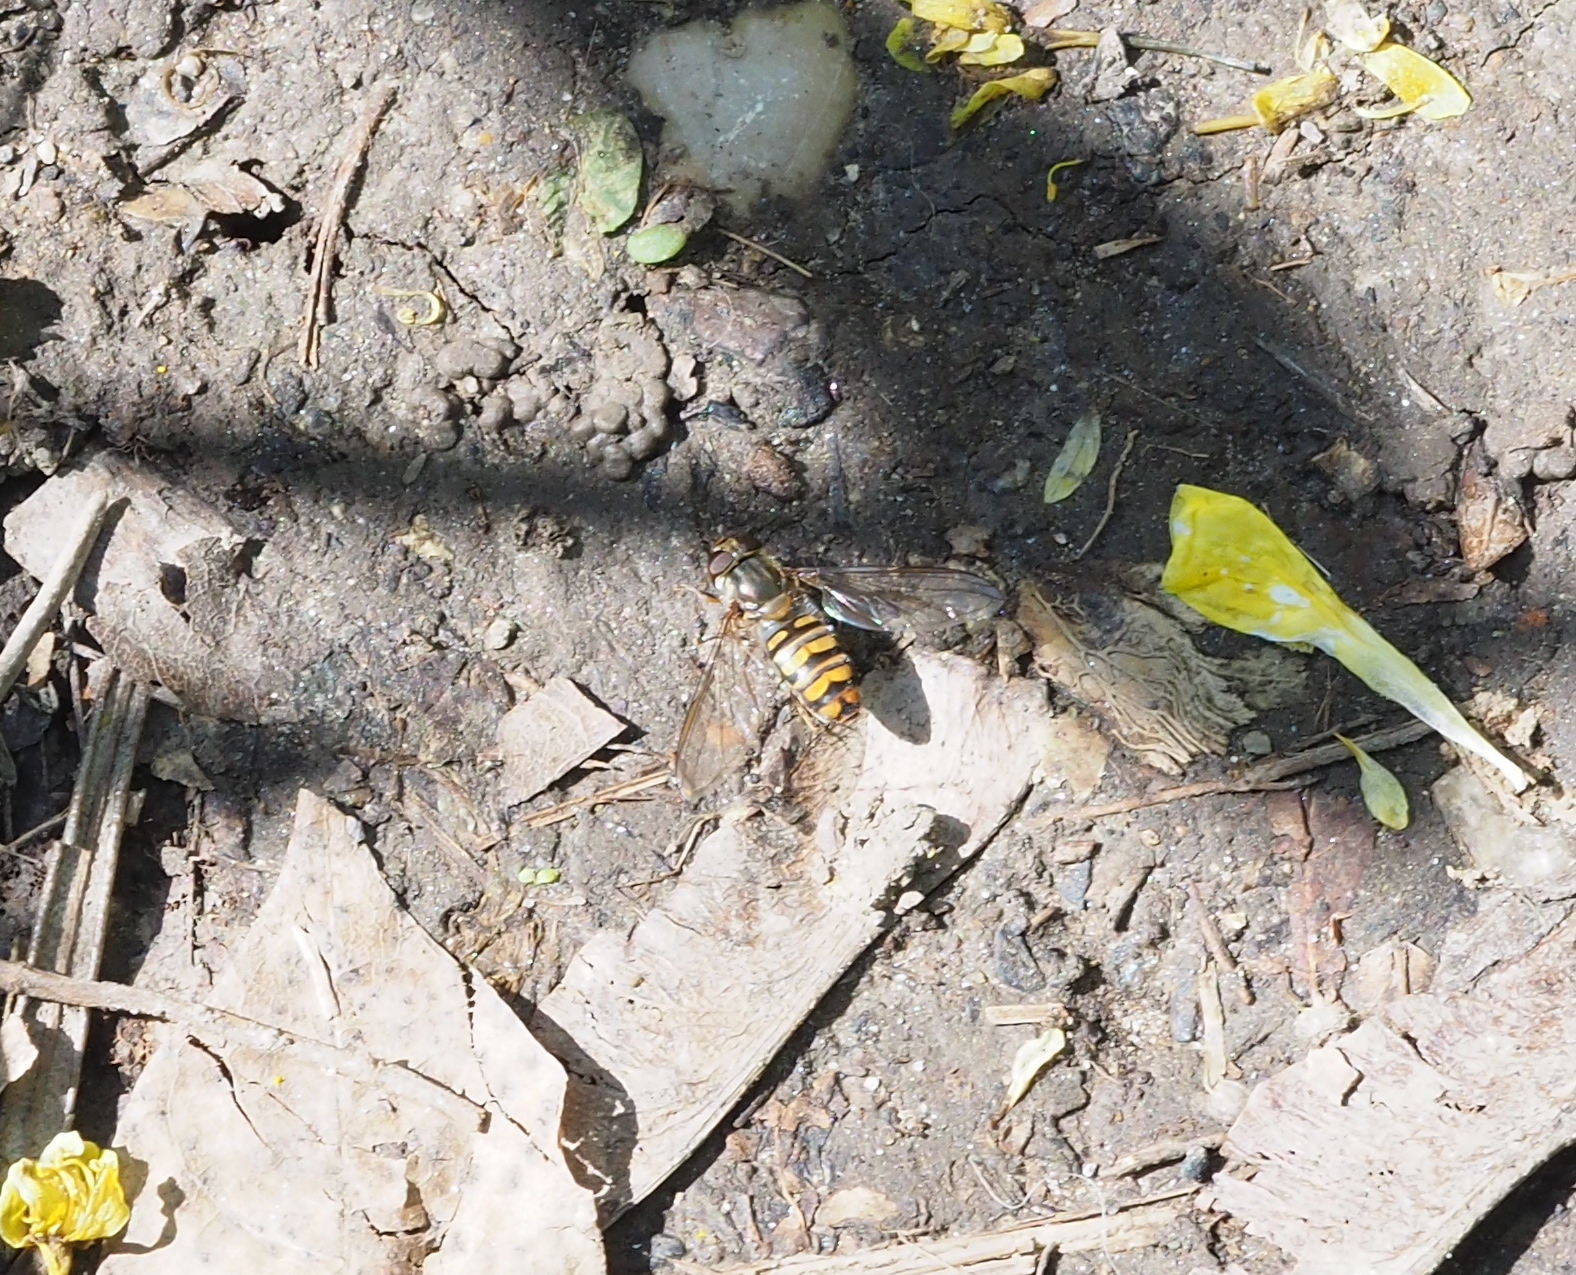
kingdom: Animalia
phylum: Arthropoda
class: Insecta
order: Diptera
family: Syrphidae
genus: Episyrphus
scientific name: Episyrphus balteatus
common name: Marmalade hoverfly
